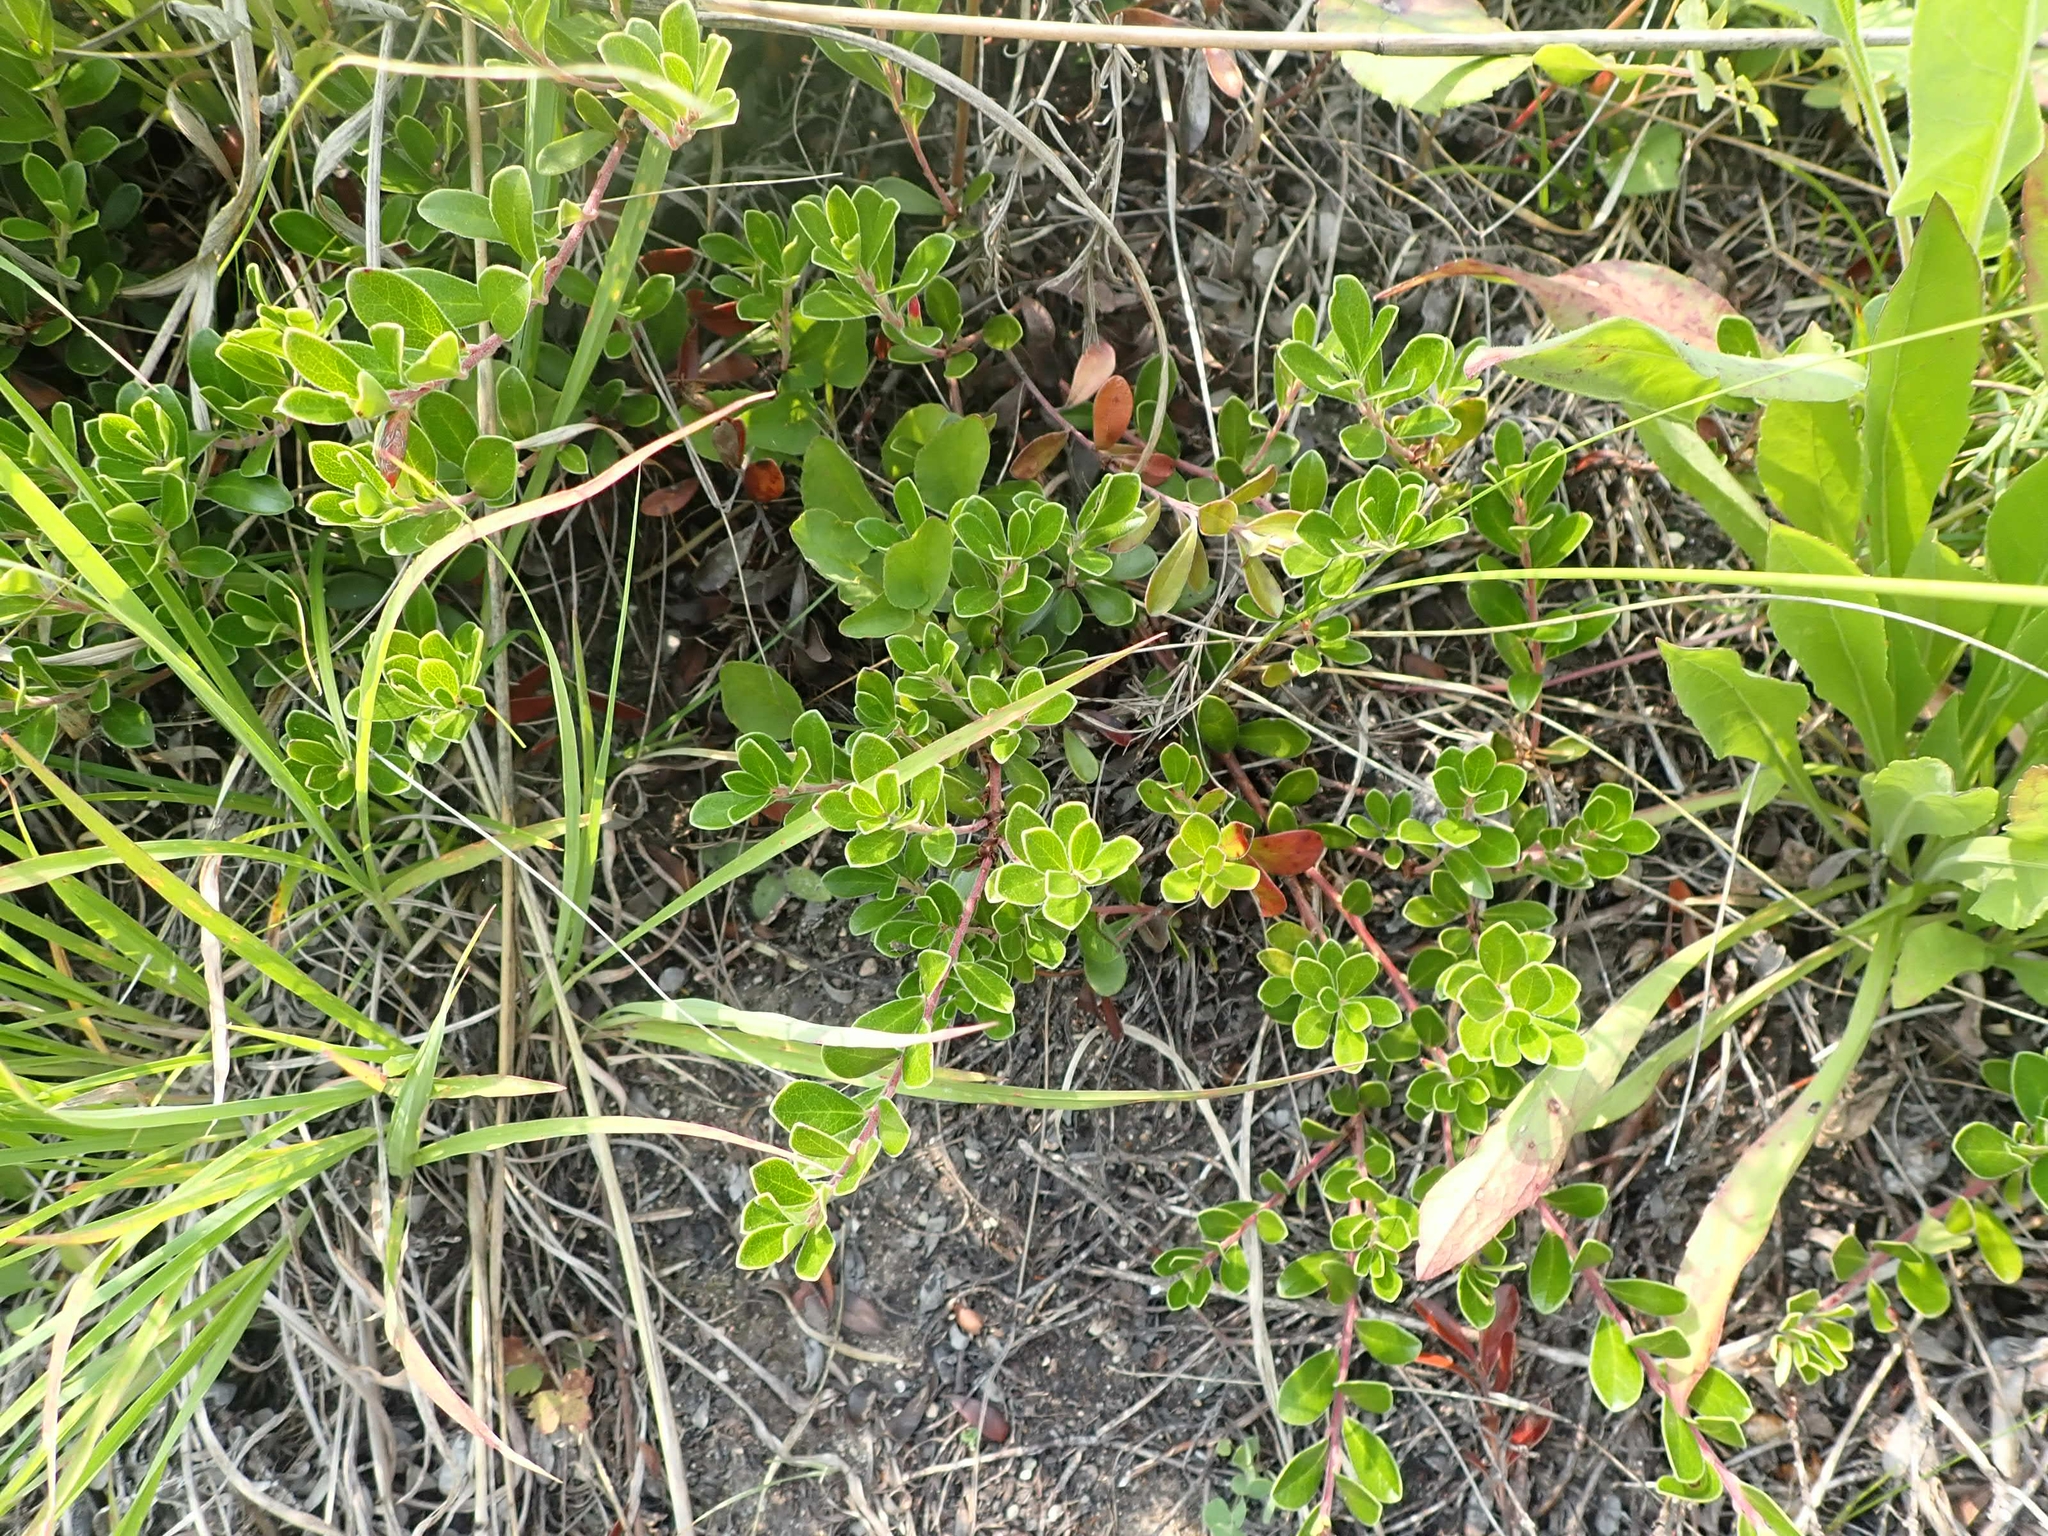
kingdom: Plantae
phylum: Tracheophyta
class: Magnoliopsida
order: Ericales
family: Ericaceae
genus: Arctostaphylos
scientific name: Arctostaphylos uva-ursi
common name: Bearberry
